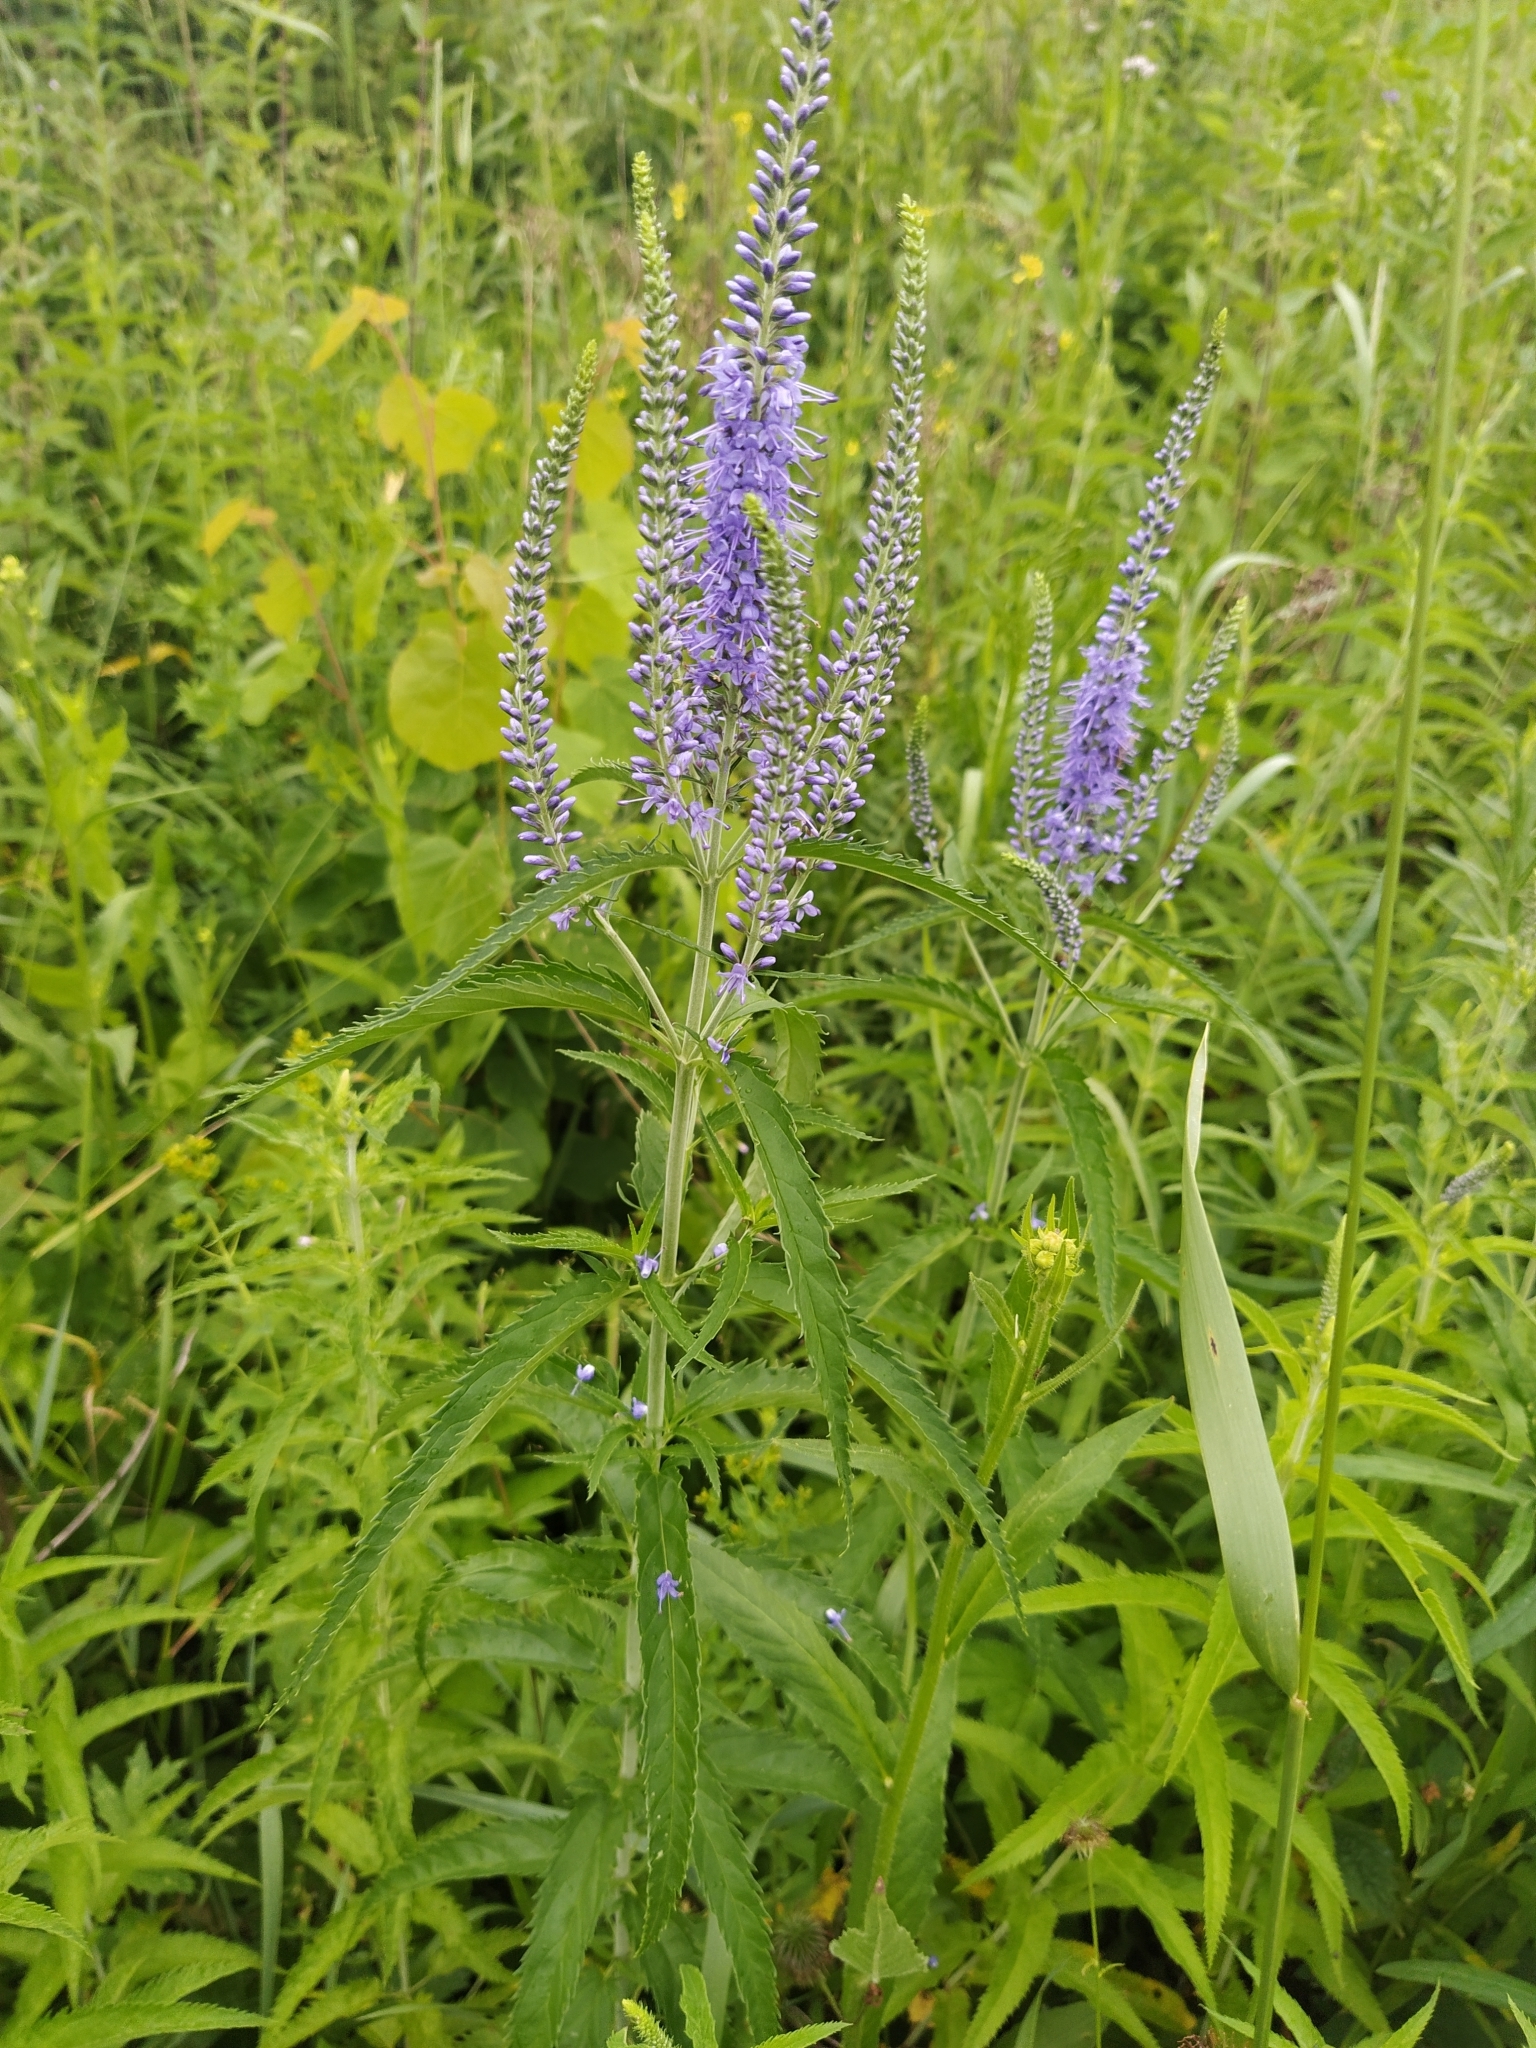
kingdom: Plantae
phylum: Tracheophyta
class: Magnoliopsida
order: Lamiales
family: Plantaginaceae
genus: Veronica
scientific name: Veronica longifolia
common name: Garden speedwell
